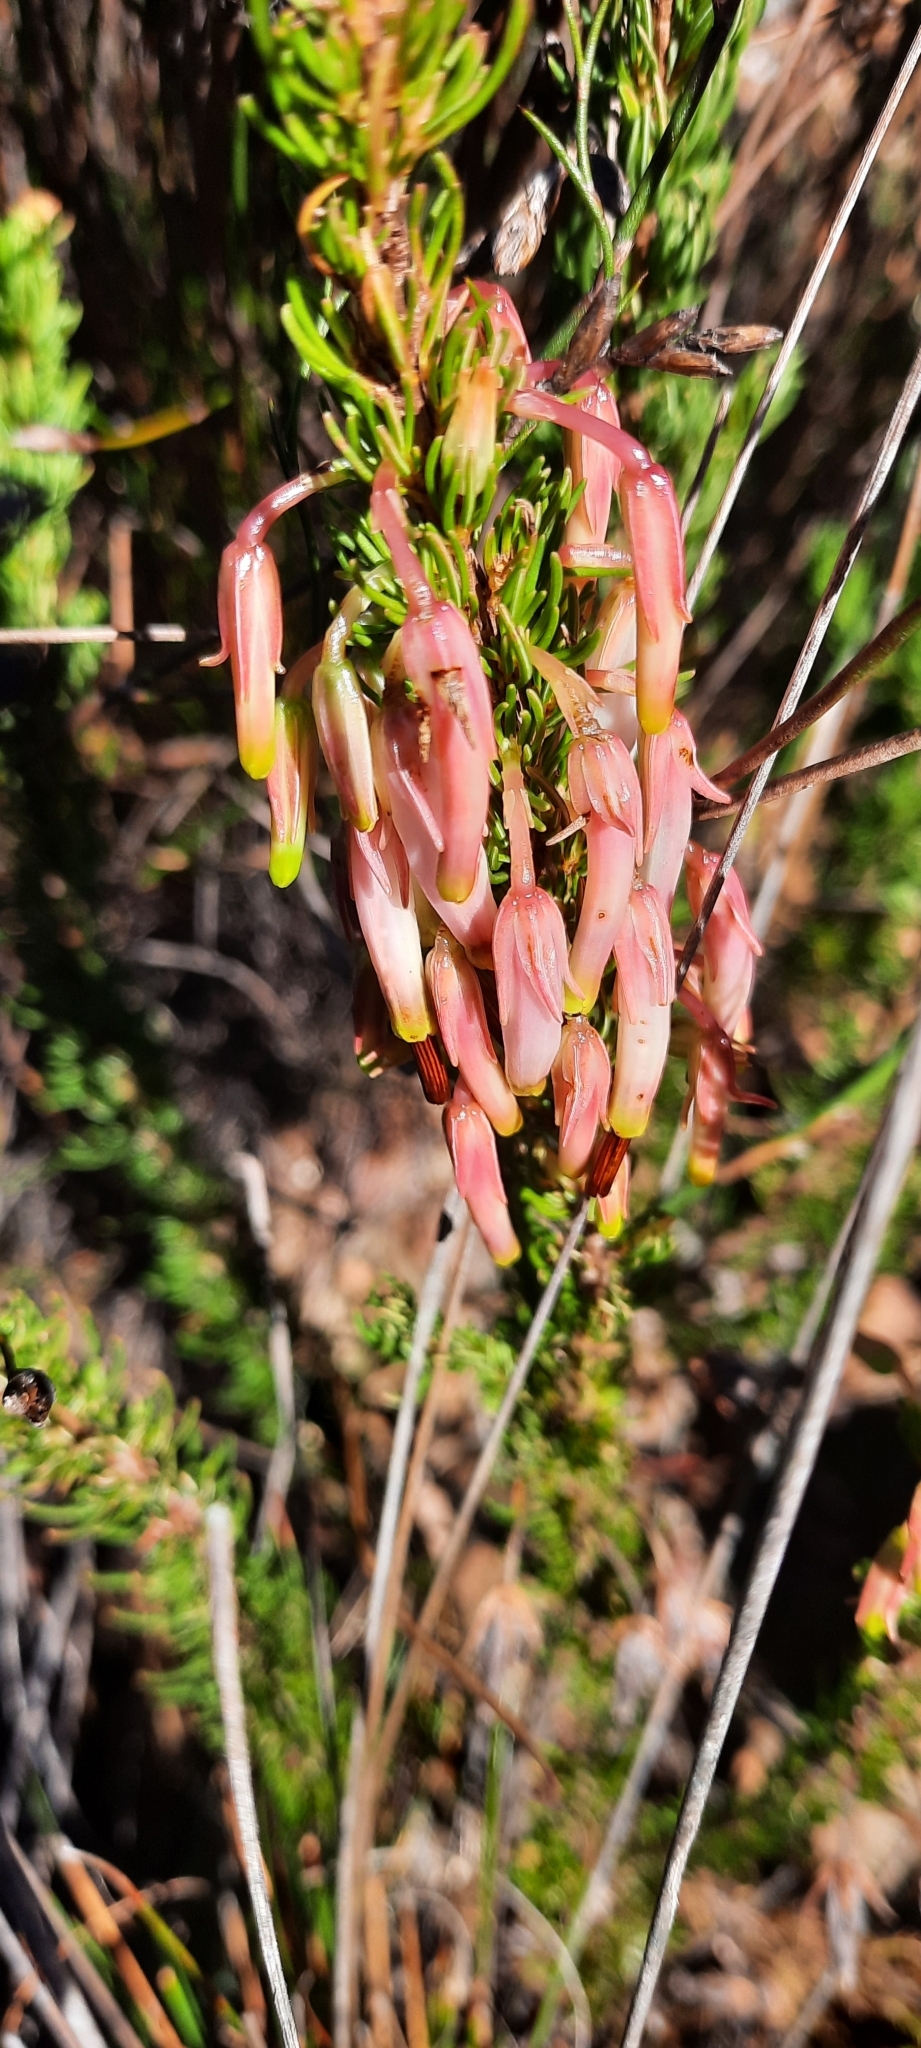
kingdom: Plantae
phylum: Tracheophyta
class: Magnoliopsida
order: Ericales
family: Ericaceae
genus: Erica
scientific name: Erica plukenetii
